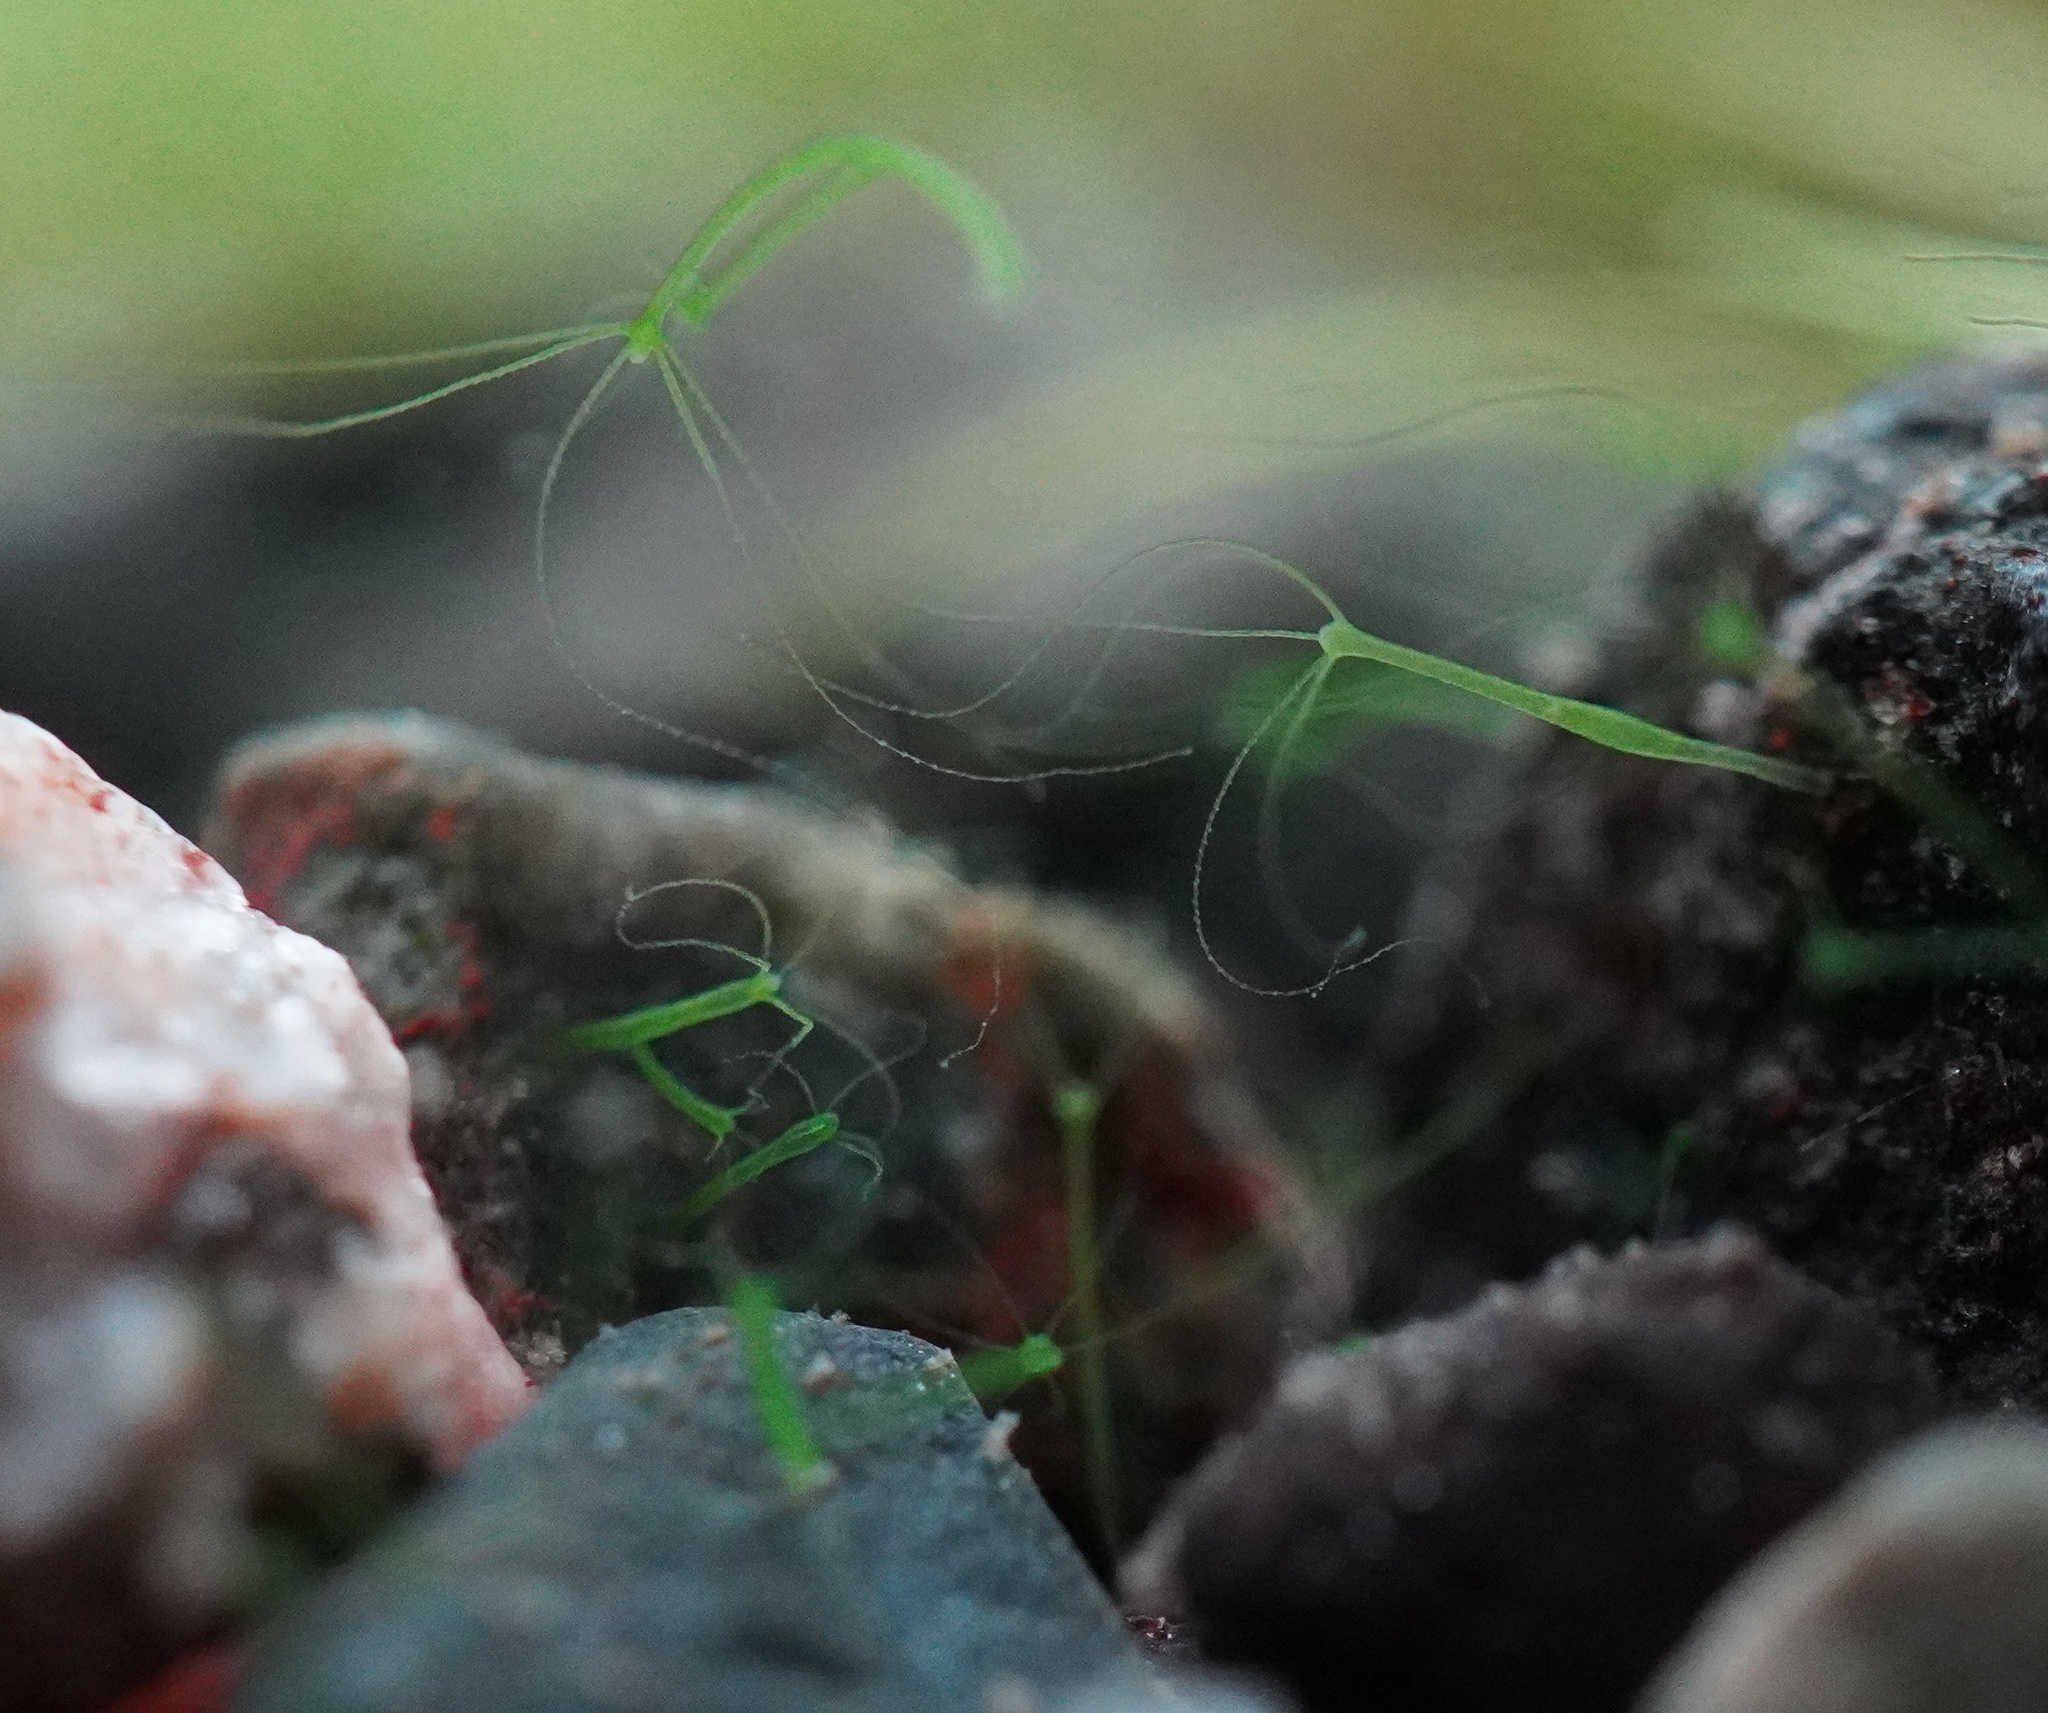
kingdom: Animalia
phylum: Cnidaria
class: Hydrozoa
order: Anthoathecata
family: Hydridae
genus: Hydra
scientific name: Hydra viridissima
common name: Green hydra
